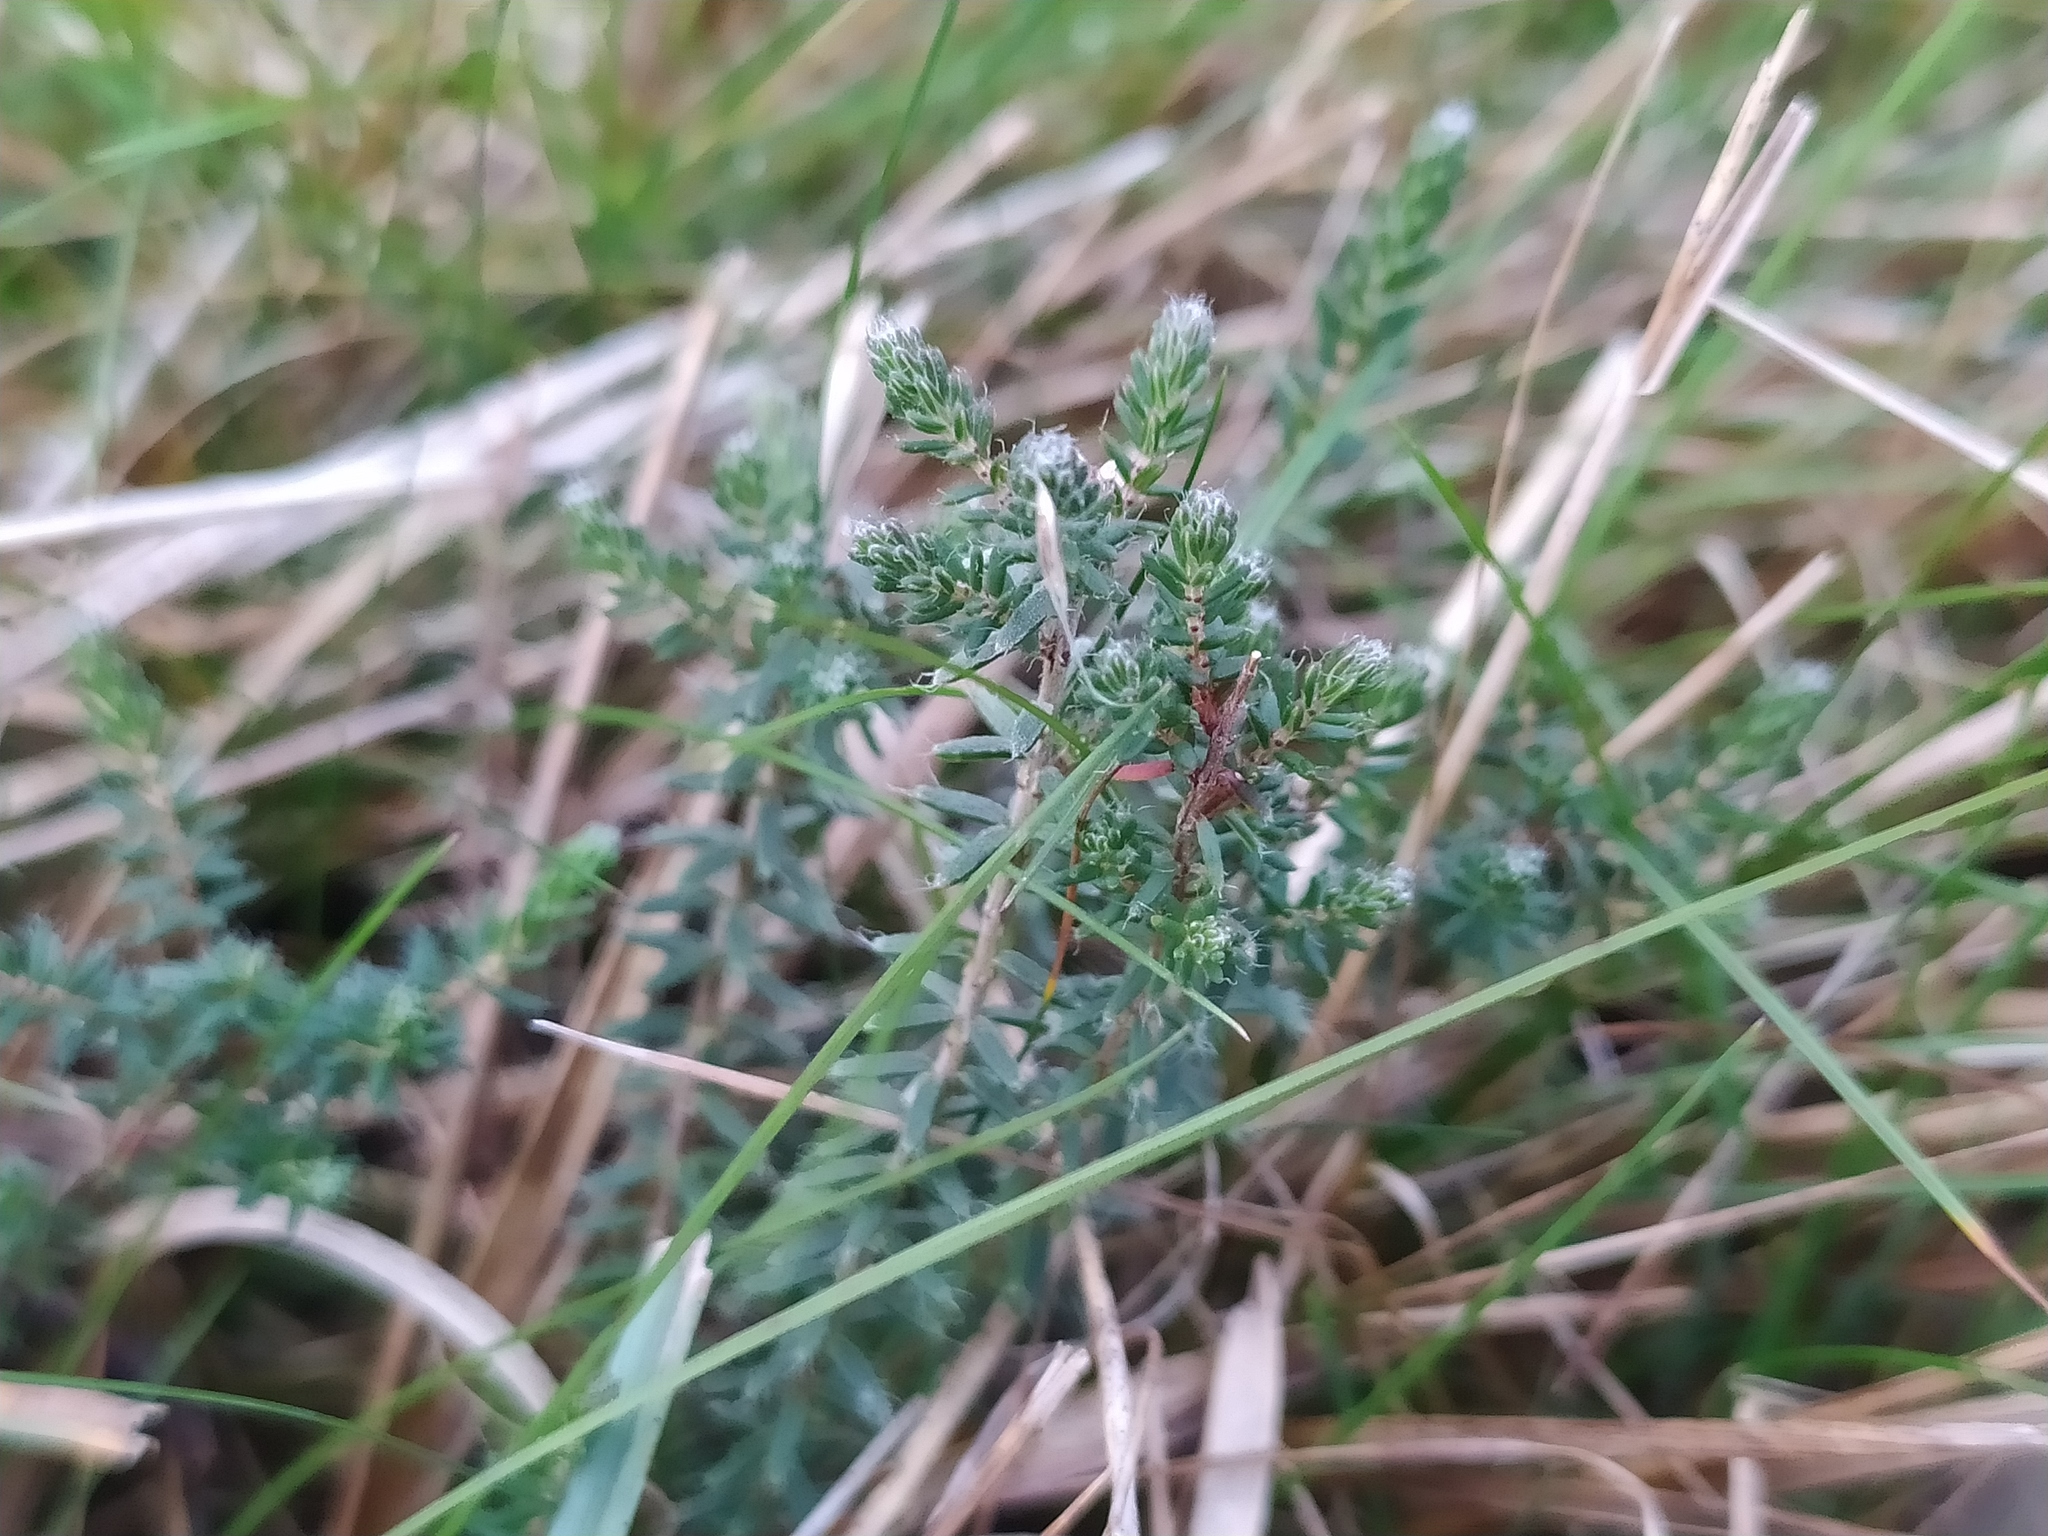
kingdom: Plantae
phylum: Tracheophyta
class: Magnoliopsida
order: Ericales
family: Ericaceae
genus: Erica
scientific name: Erica tetralix
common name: Cross-leaved heath
